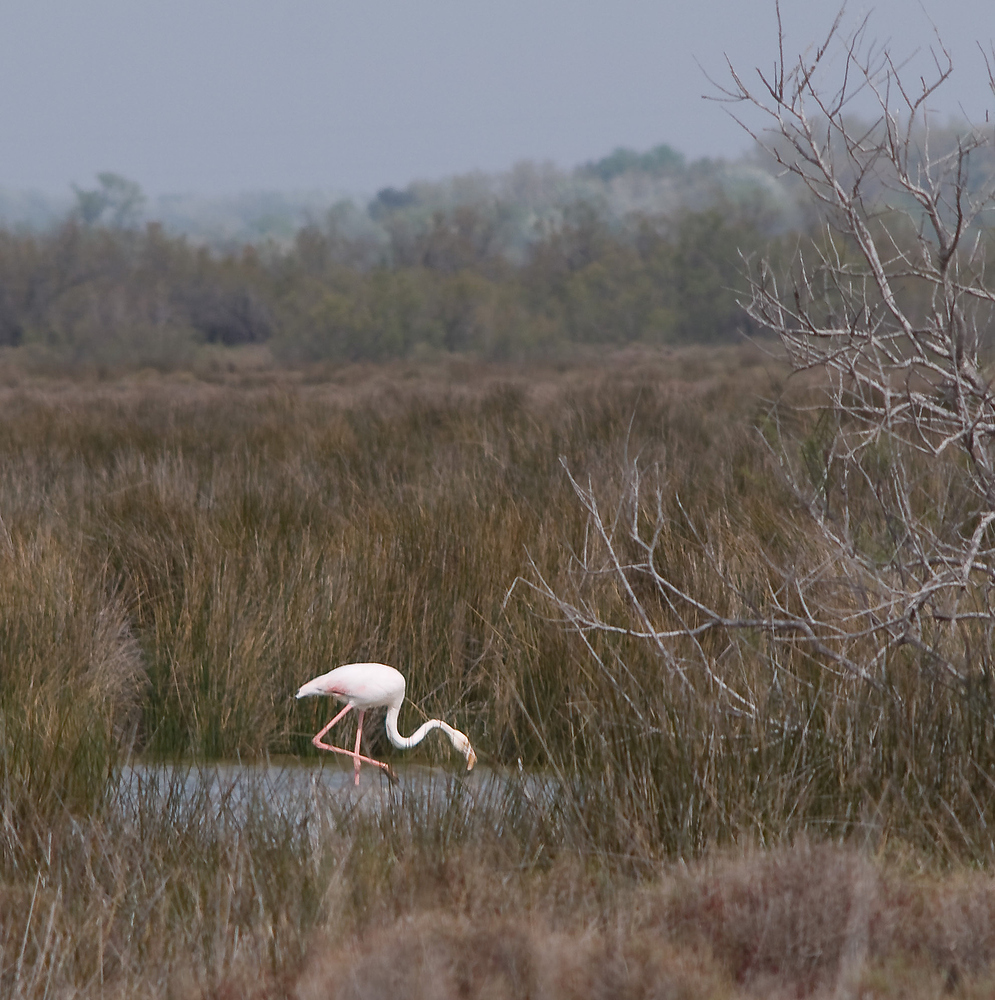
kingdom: Animalia
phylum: Chordata
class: Aves
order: Phoenicopteriformes
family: Phoenicopteridae
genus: Phoenicopterus
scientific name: Phoenicopterus roseus
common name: Greater flamingo
